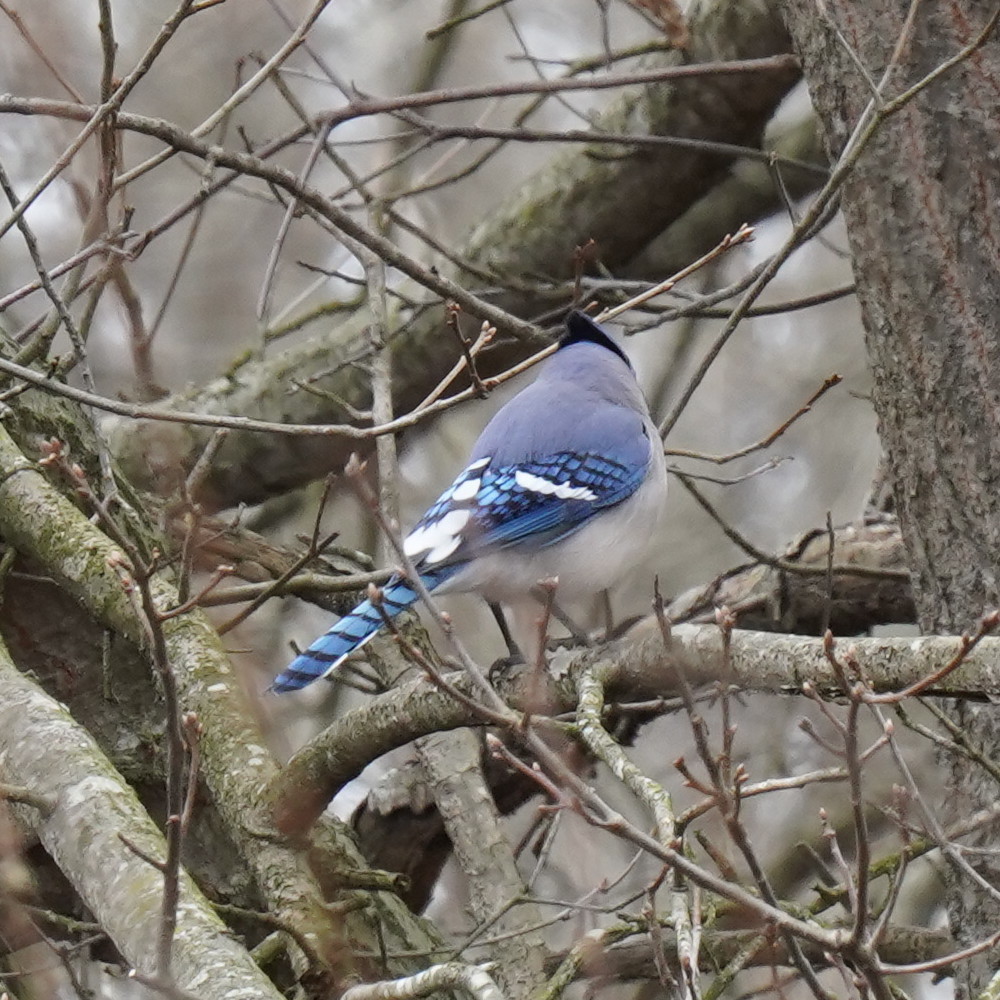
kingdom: Animalia
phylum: Chordata
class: Aves
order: Passeriformes
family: Corvidae
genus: Cyanocitta
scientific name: Cyanocitta cristata
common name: Blue jay
